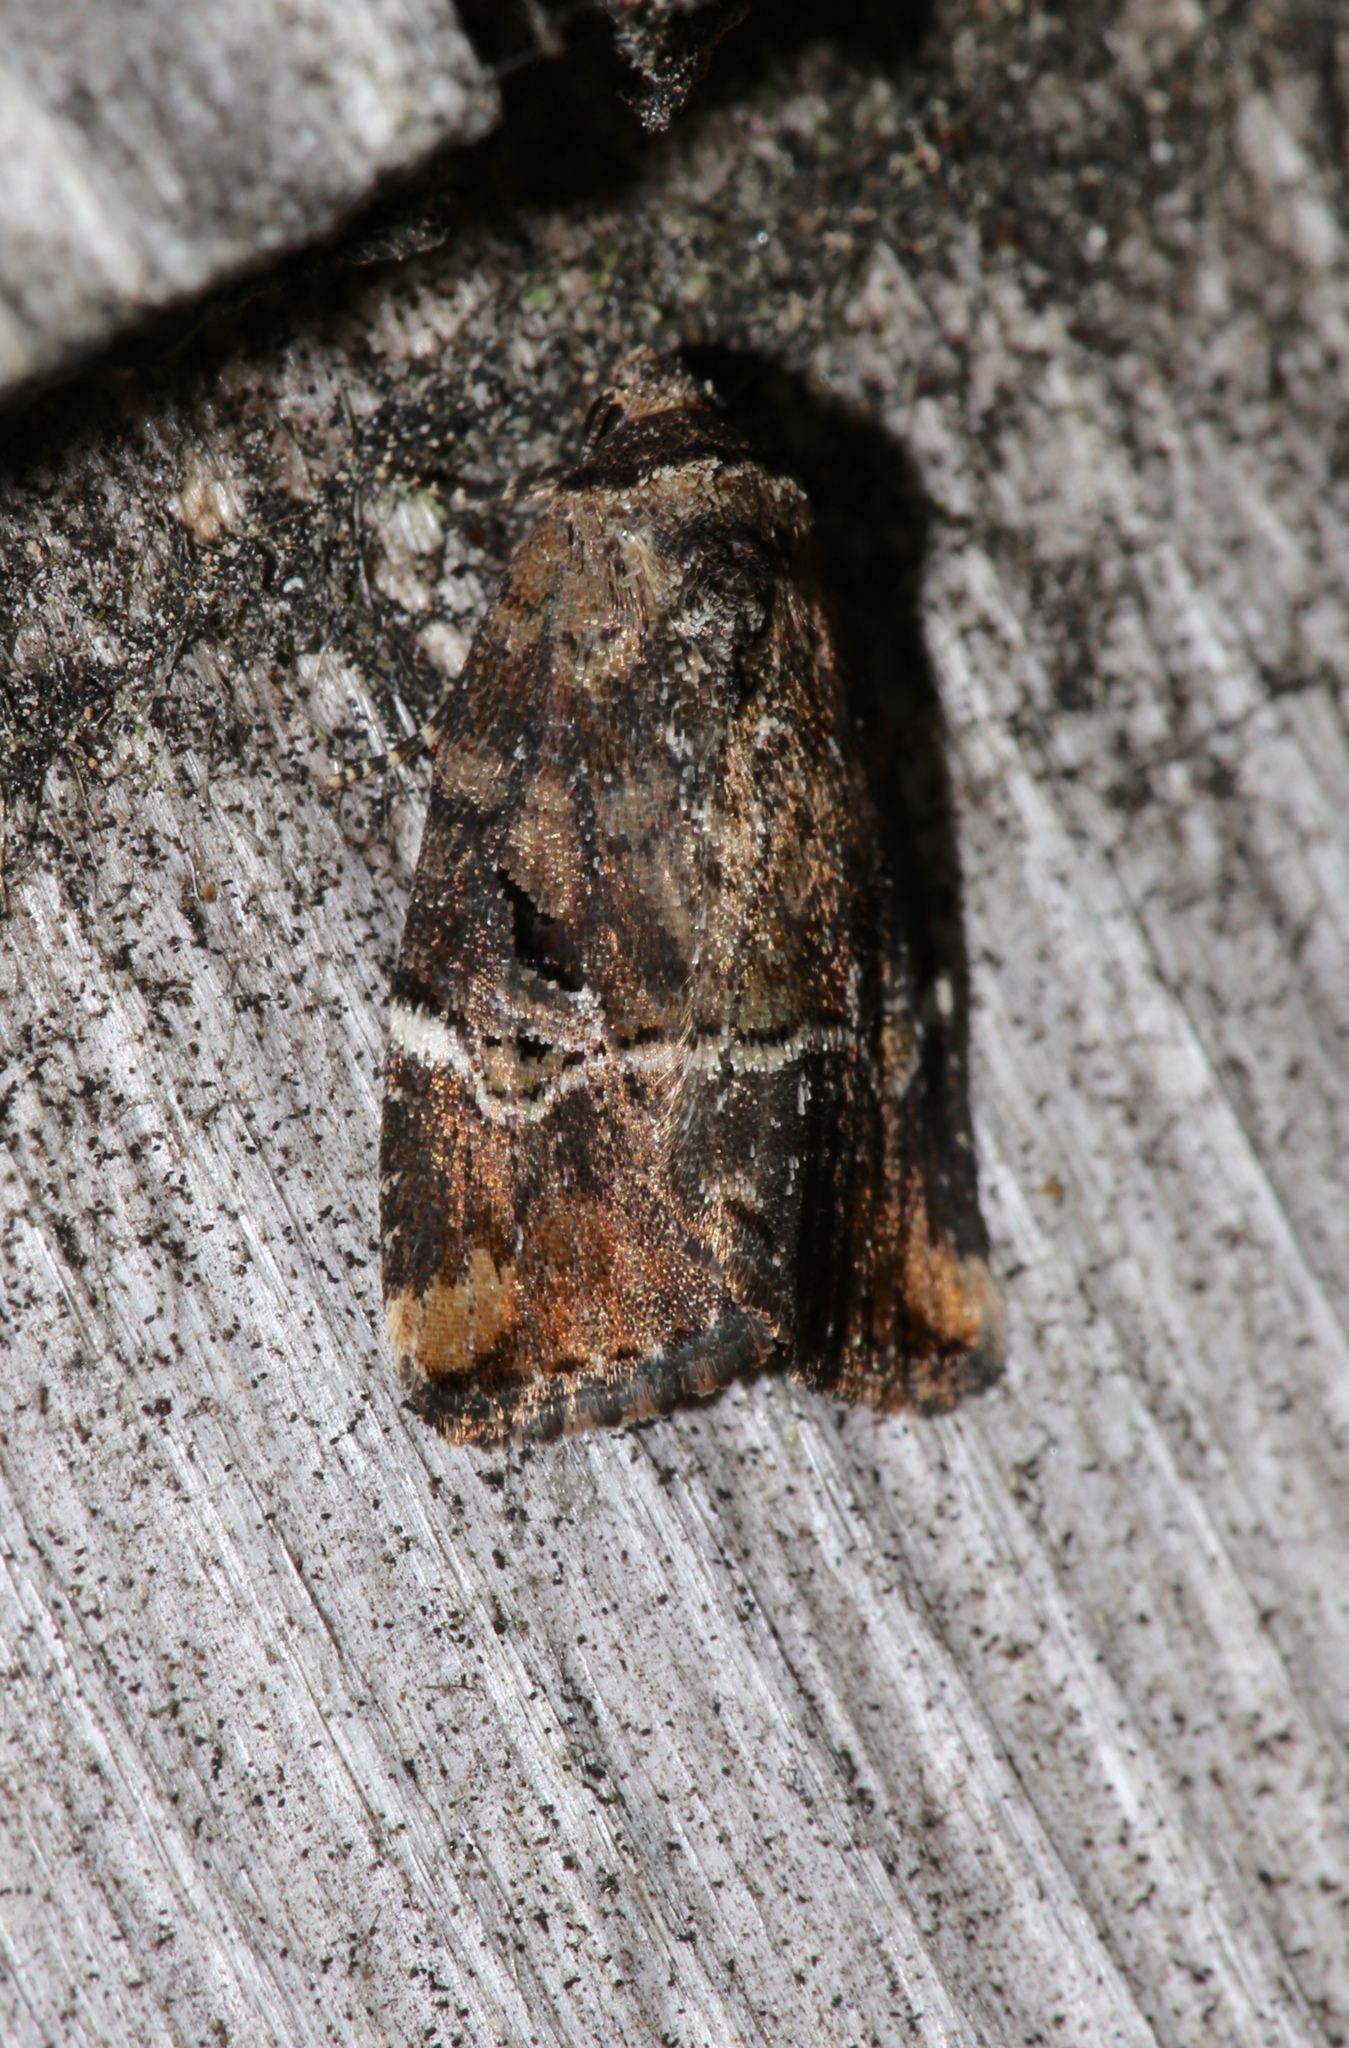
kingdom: Animalia
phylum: Arthropoda
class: Insecta
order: Lepidoptera
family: Noctuidae
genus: Elaphria
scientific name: Elaphria versicolor
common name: Fir harlequin
